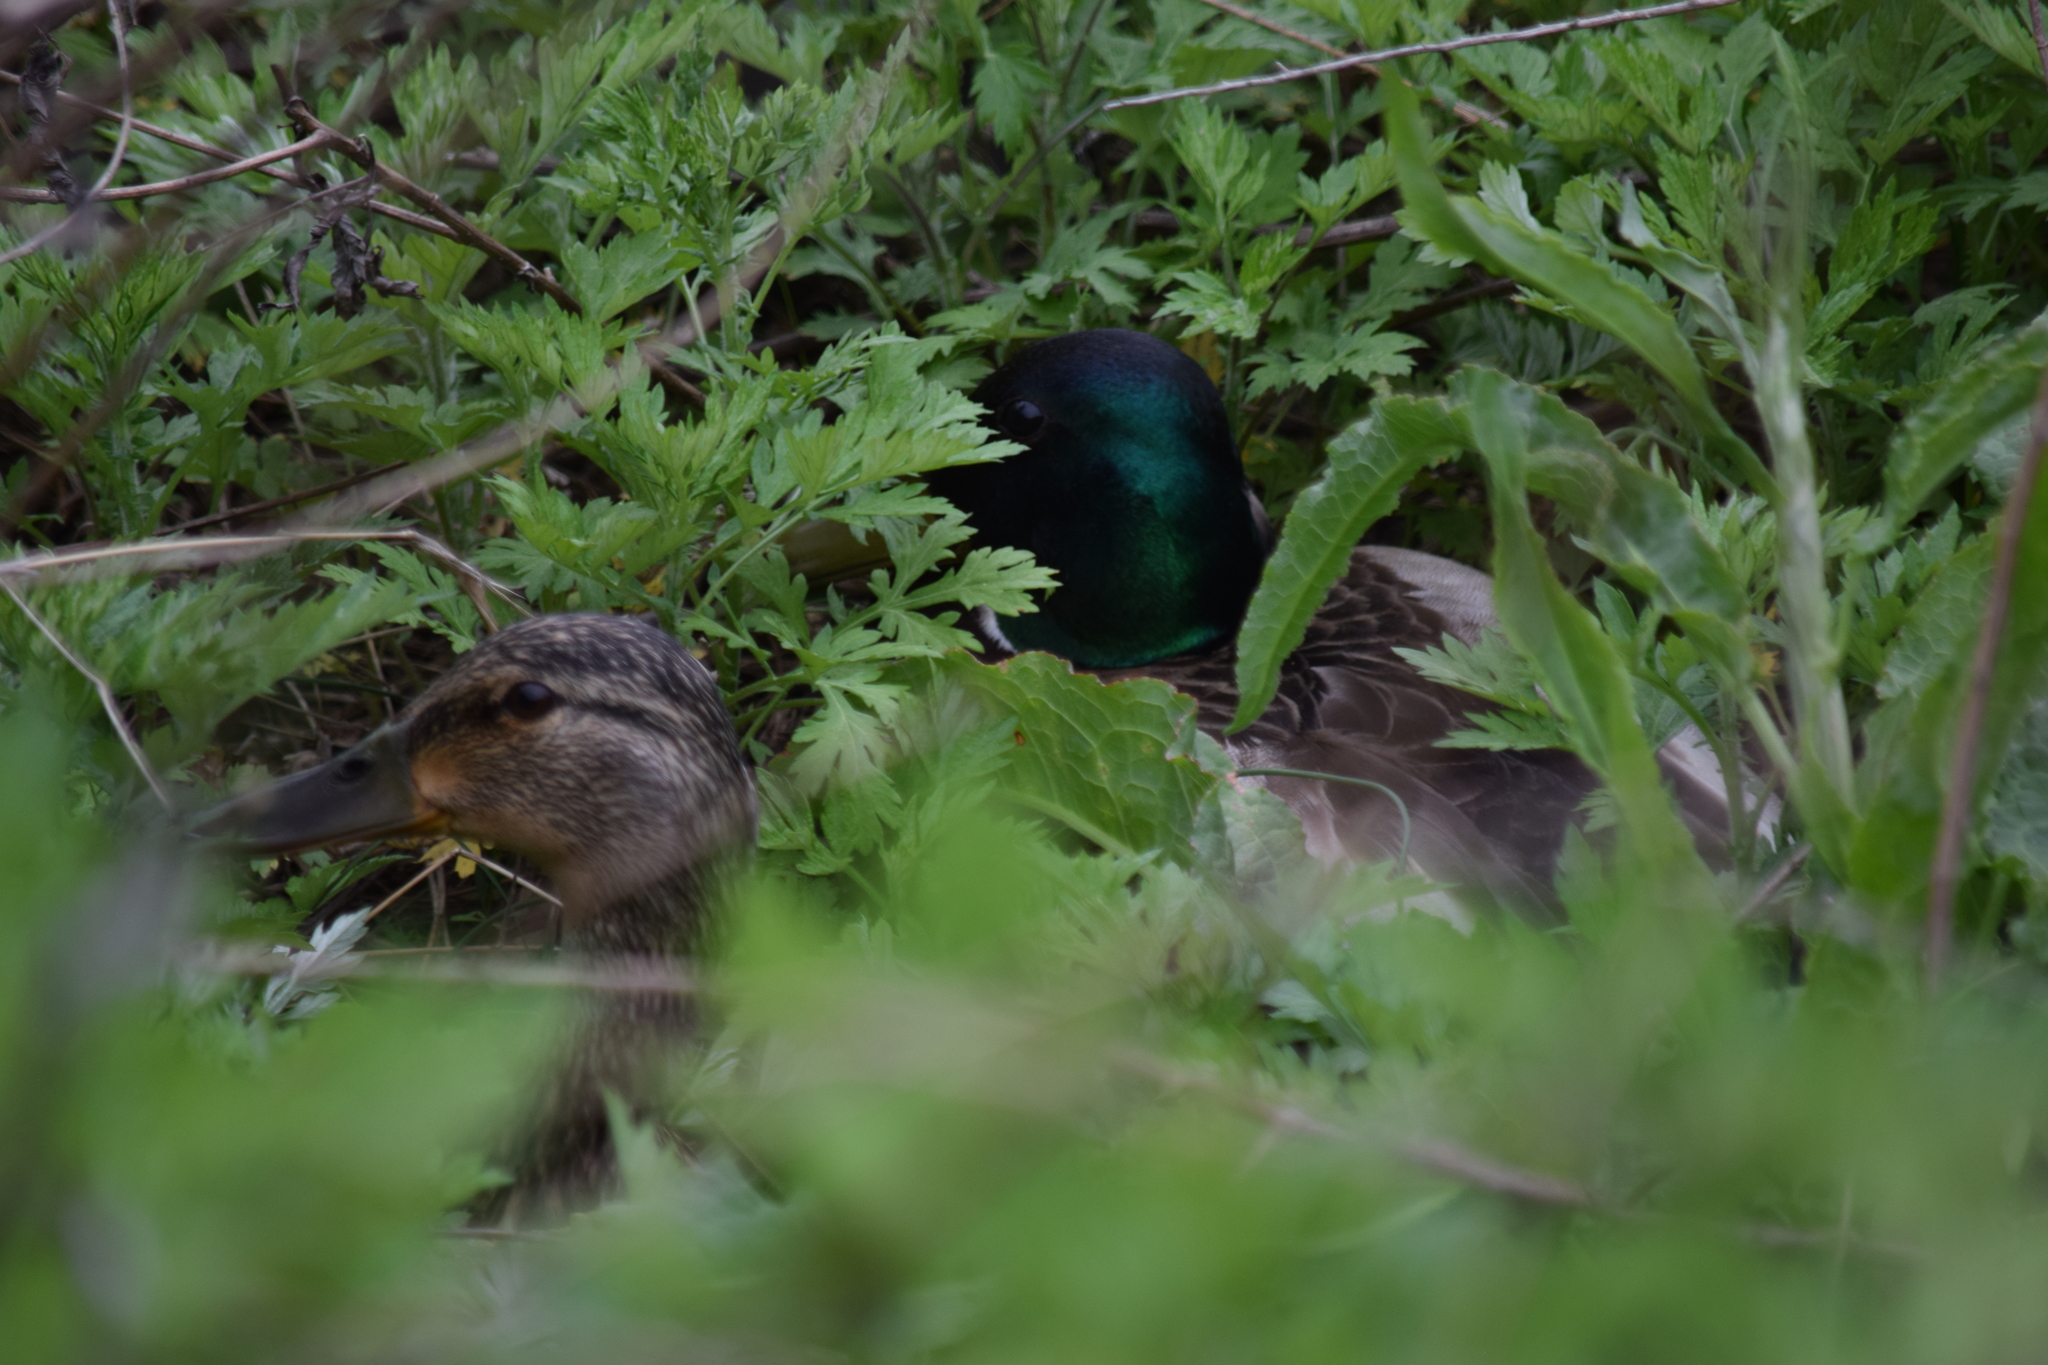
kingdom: Animalia
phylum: Chordata
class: Aves
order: Anseriformes
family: Anatidae
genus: Anas
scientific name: Anas platyrhynchos
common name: Mallard
